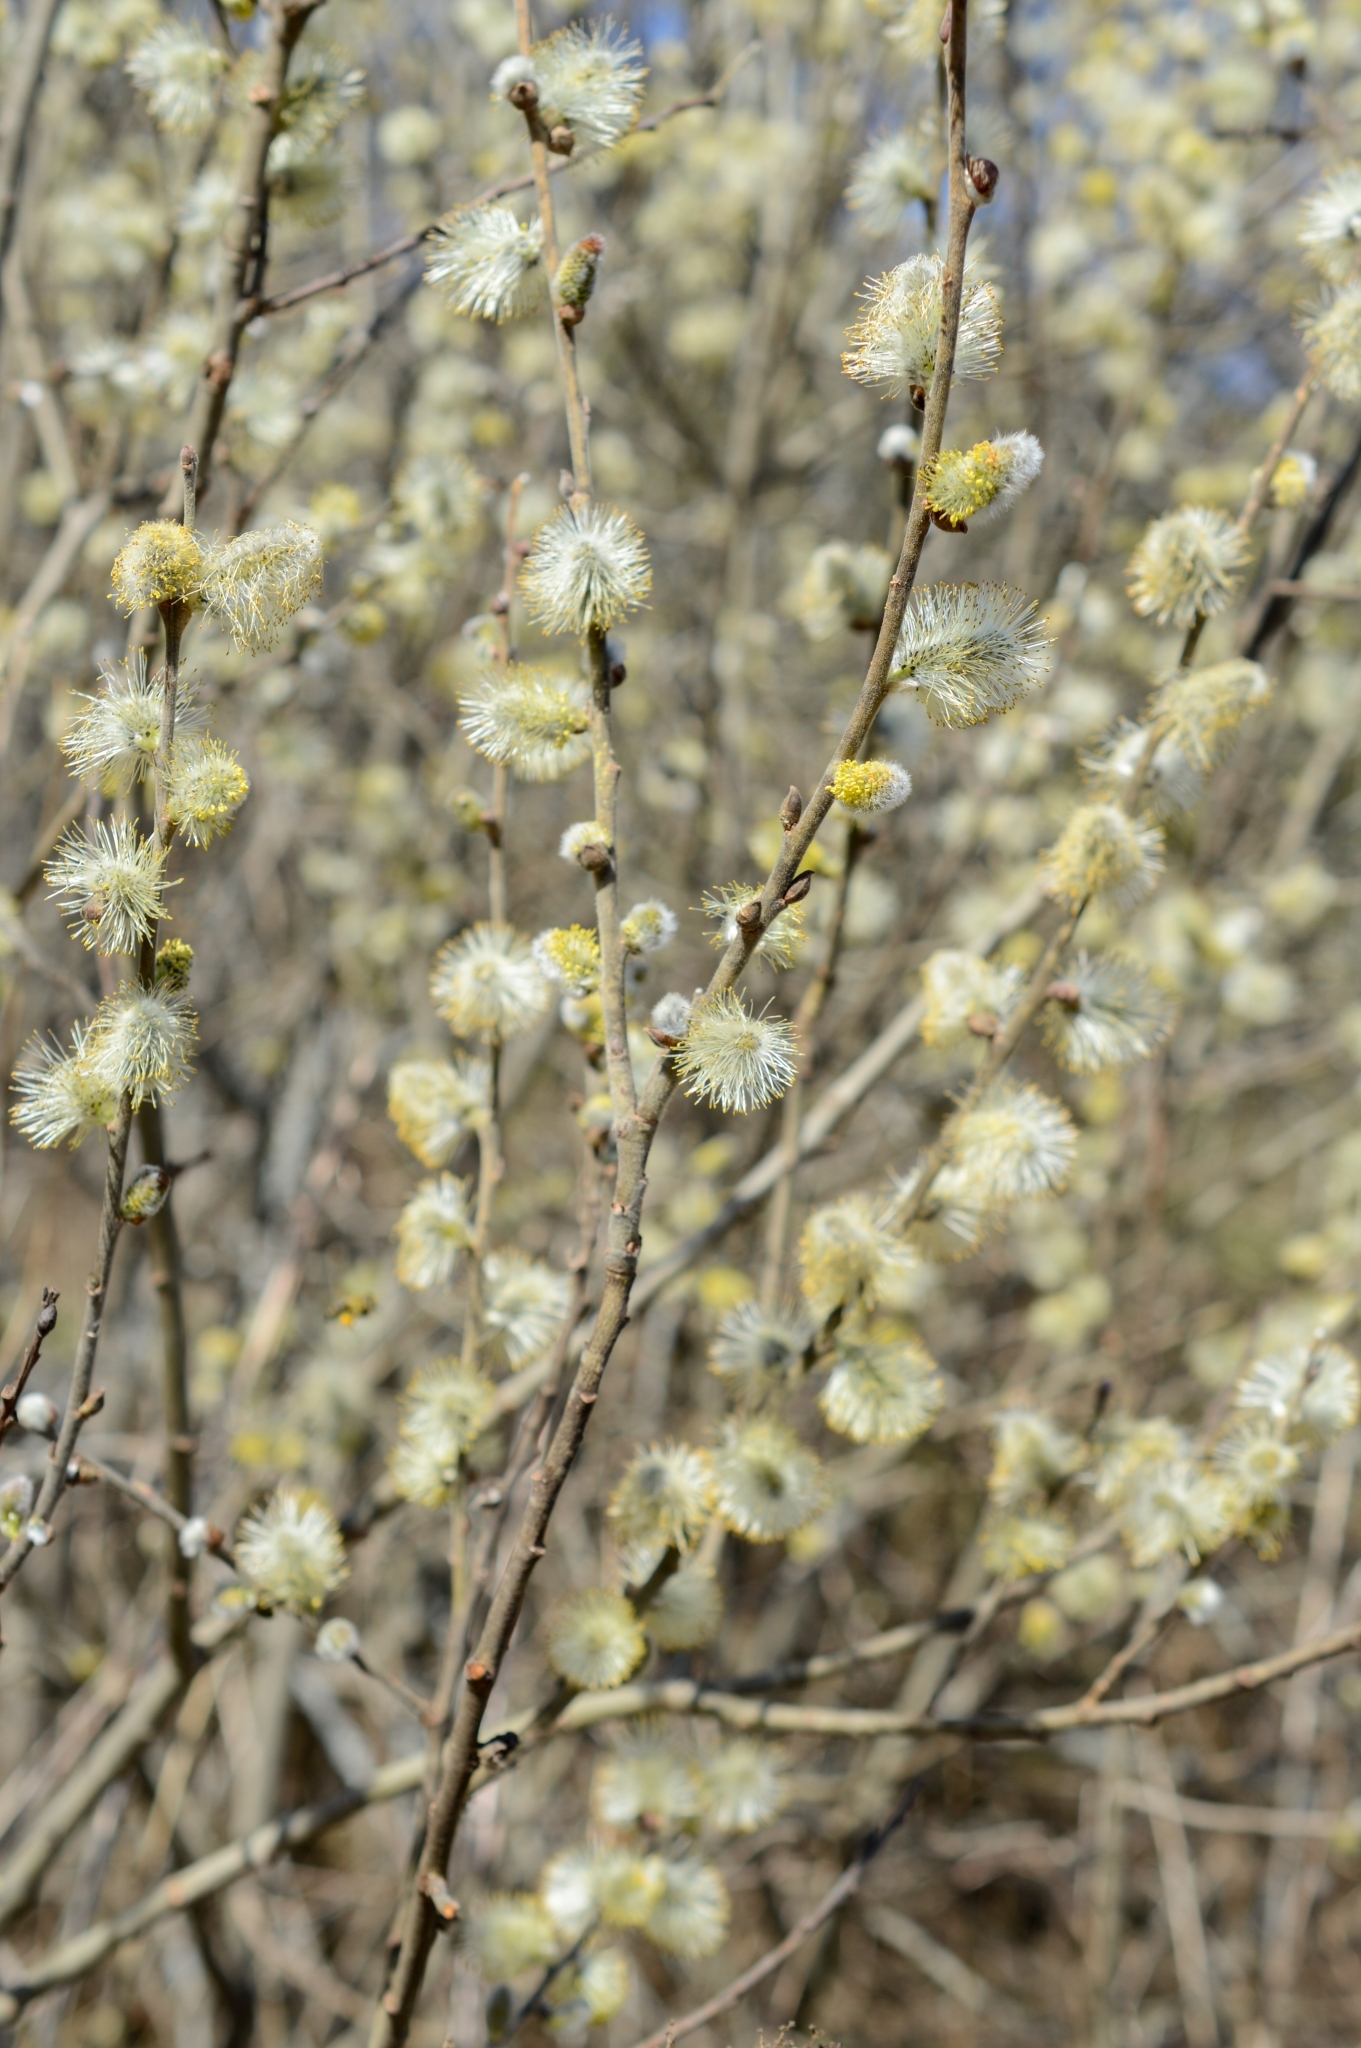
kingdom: Plantae
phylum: Tracheophyta
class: Magnoliopsida
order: Malpighiales
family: Salicaceae
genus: Salix
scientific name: Salix cinerea
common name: Common sallow
